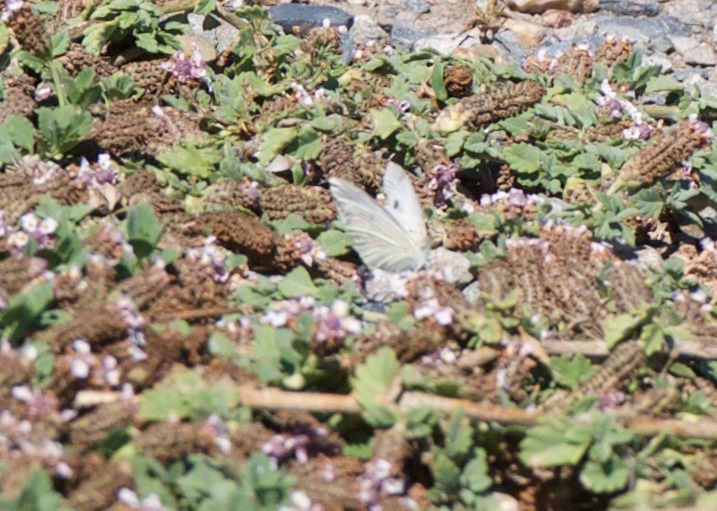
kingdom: Animalia
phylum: Arthropoda
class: Insecta
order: Lepidoptera
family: Pieridae
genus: Pieris
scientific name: Pieris rapae
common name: Small white
